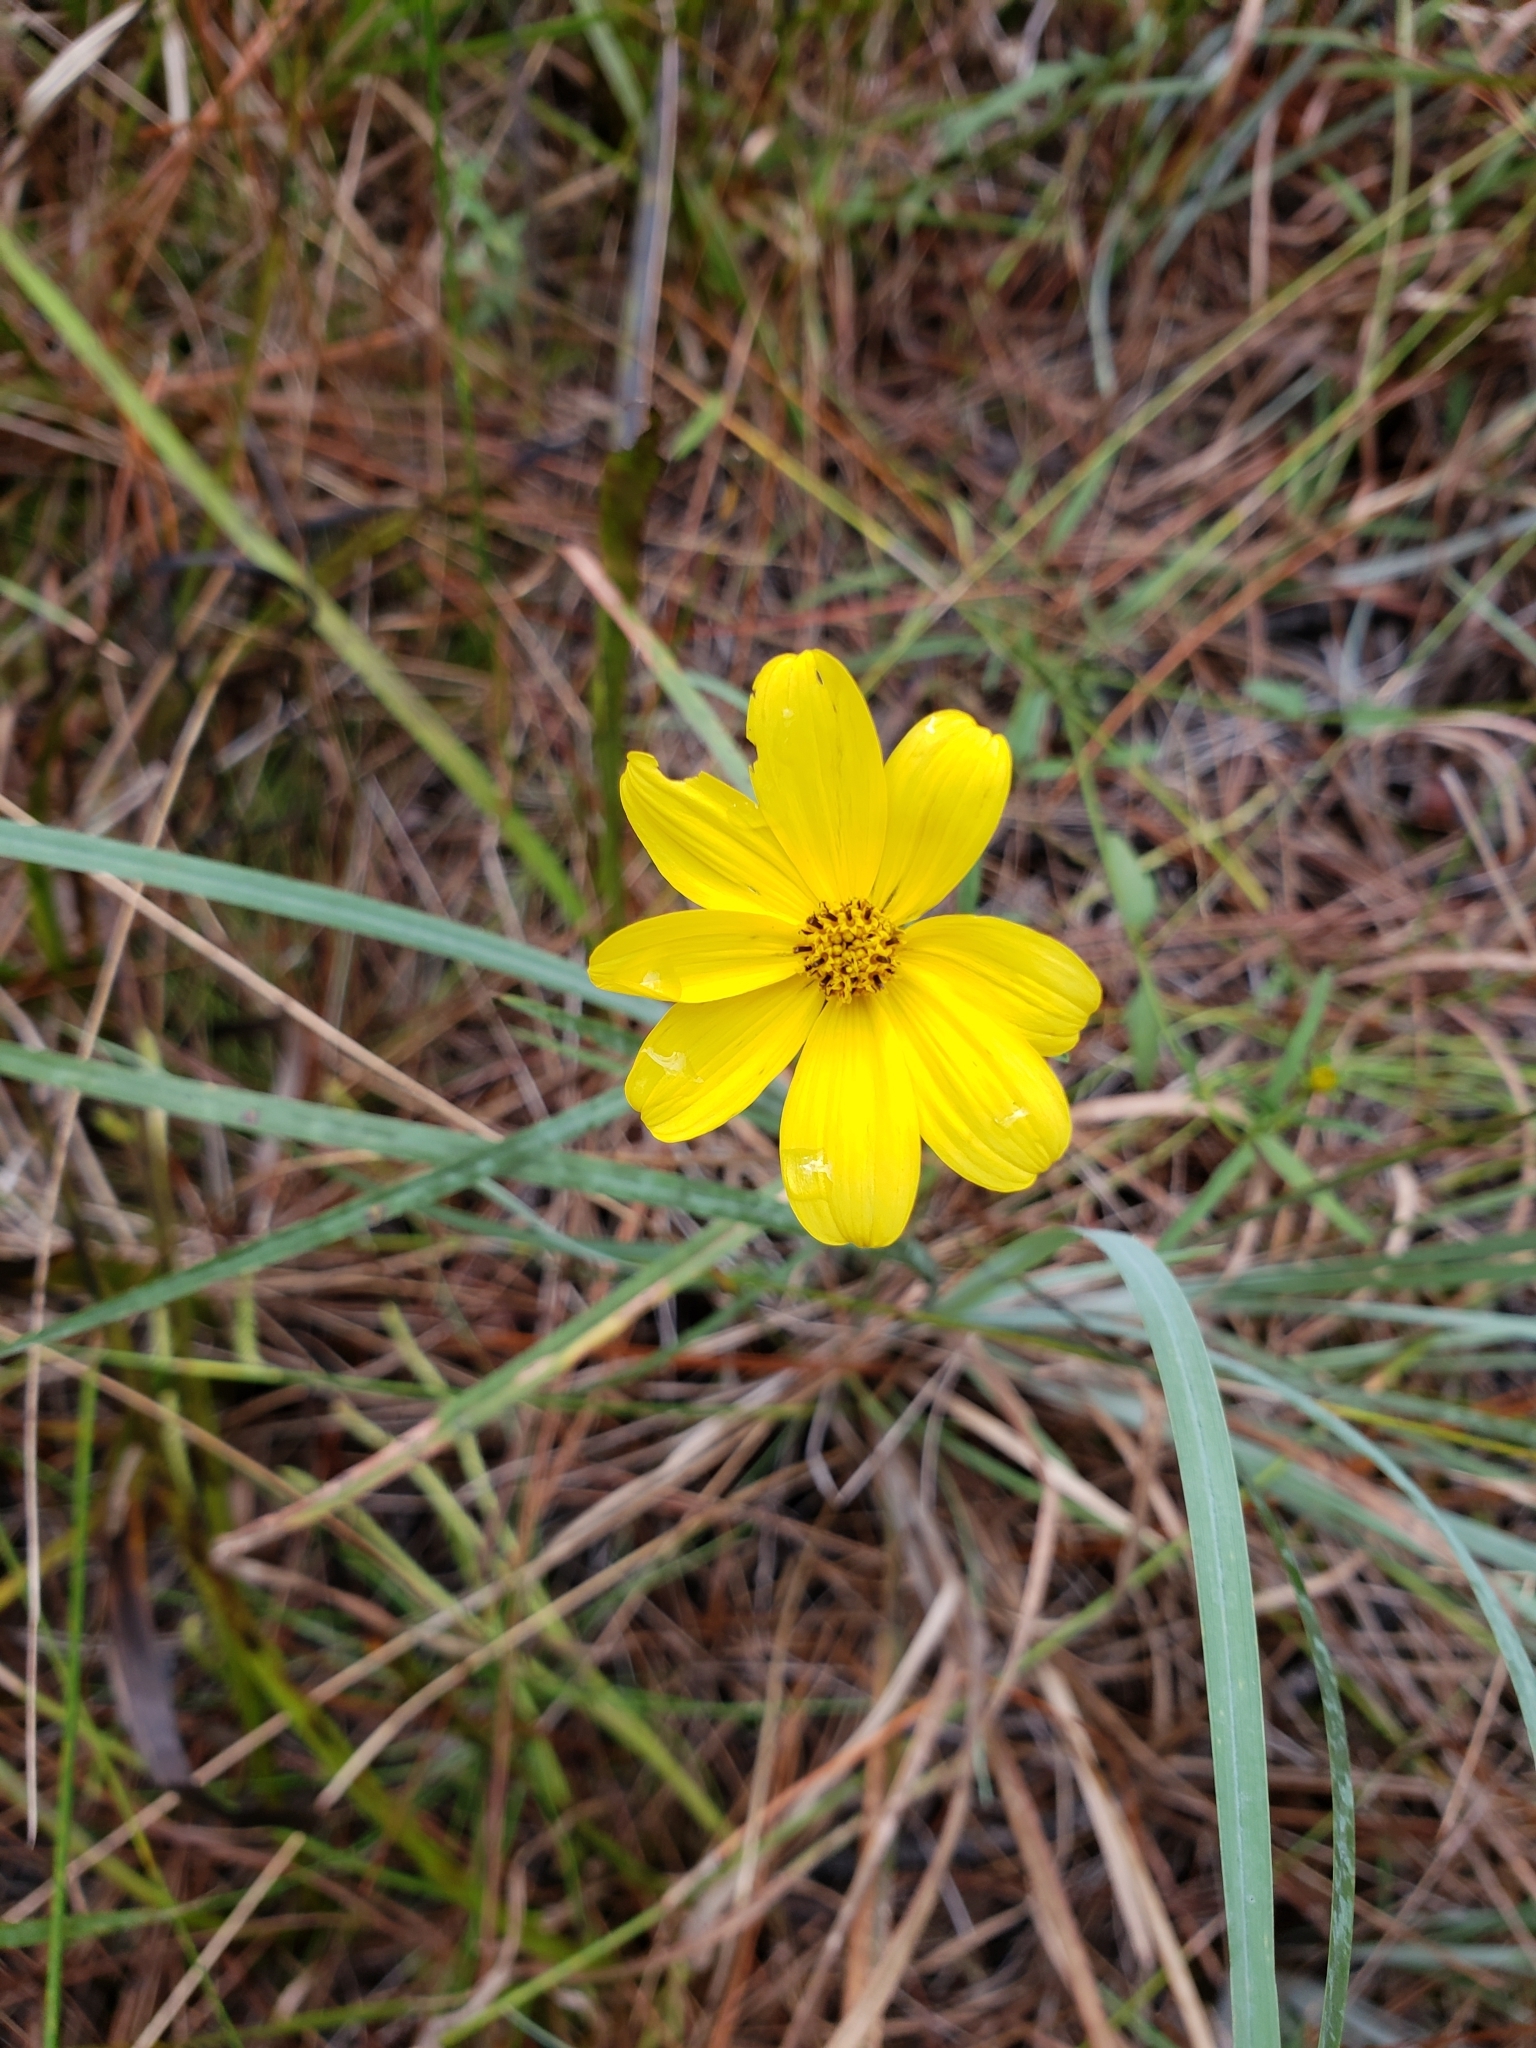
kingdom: Plantae
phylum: Tracheophyta
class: Magnoliopsida
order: Asterales
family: Asteraceae
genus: Bidens
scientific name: Bidens mitis
